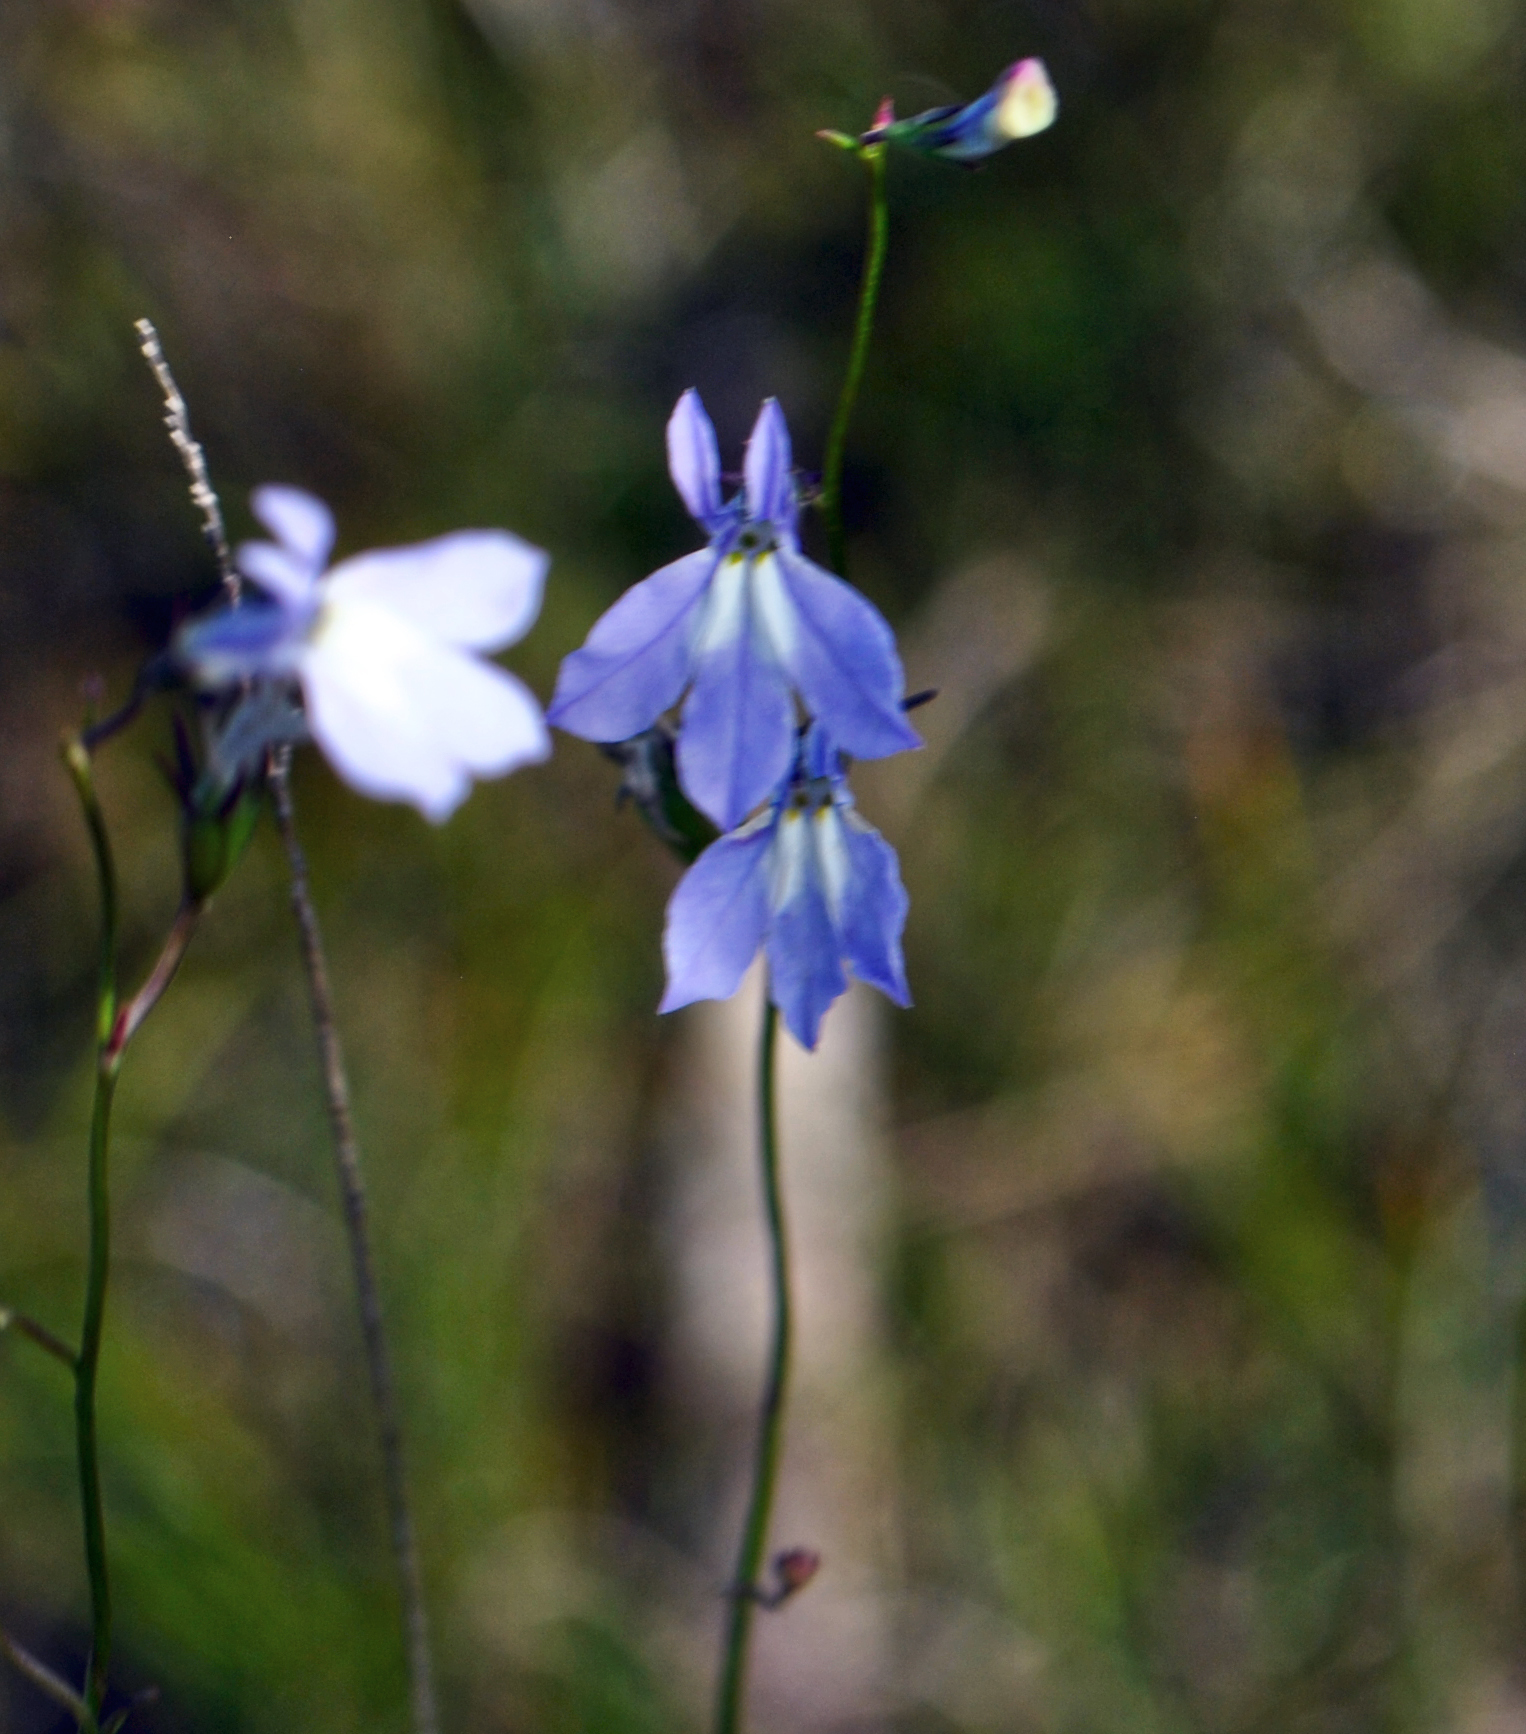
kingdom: Plantae
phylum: Tracheophyta
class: Magnoliopsida
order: Asterales
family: Campanulaceae
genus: Lobelia
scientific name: Lobelia kalmii
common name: Kalm's lobelia
